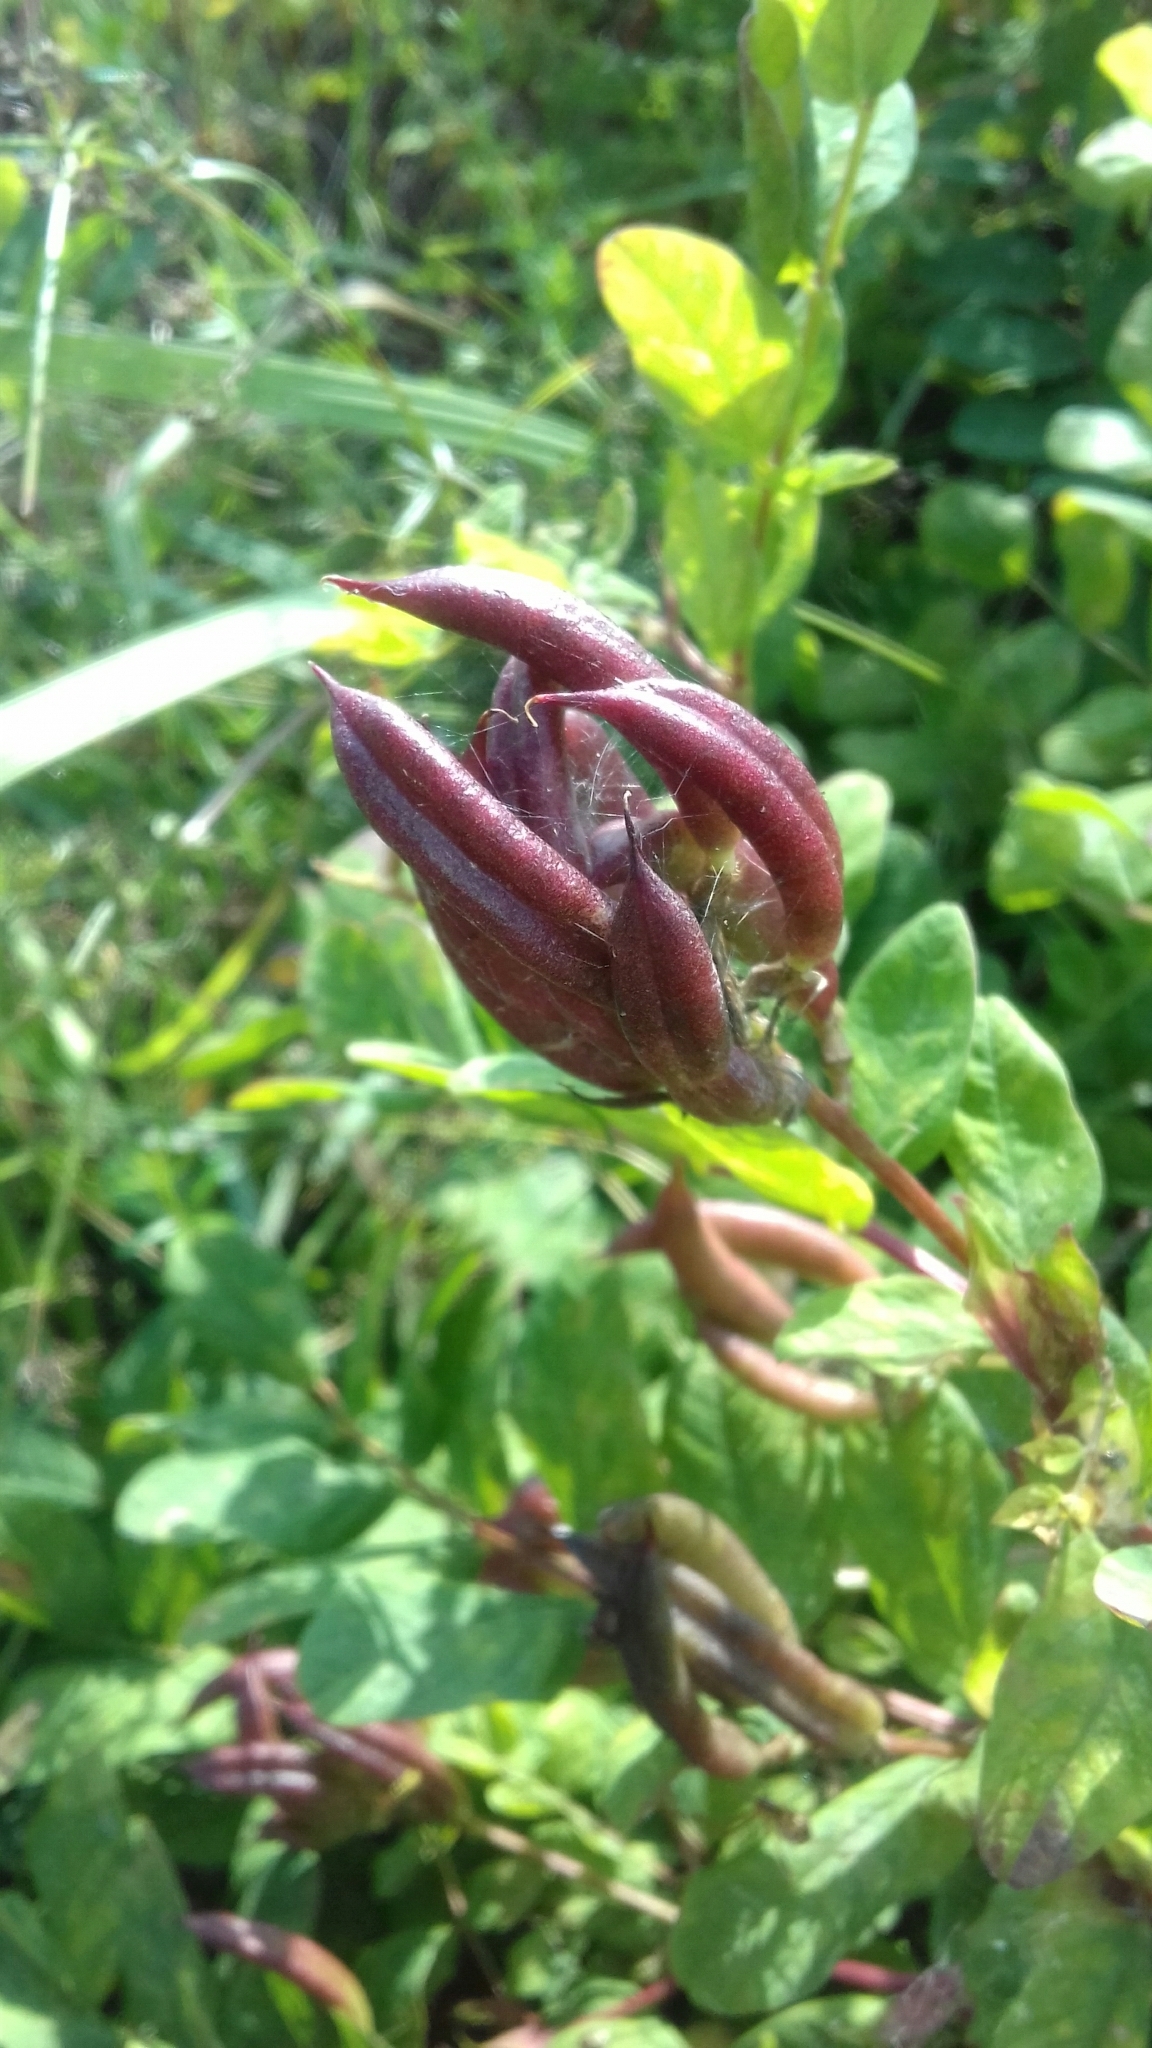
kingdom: Plantae
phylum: Tracheophyta
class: Magnoliopsida
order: Fabales
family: Fabaceae
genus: Astragalus
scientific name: Astragalus glycyphyllos
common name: Wild liquorice
